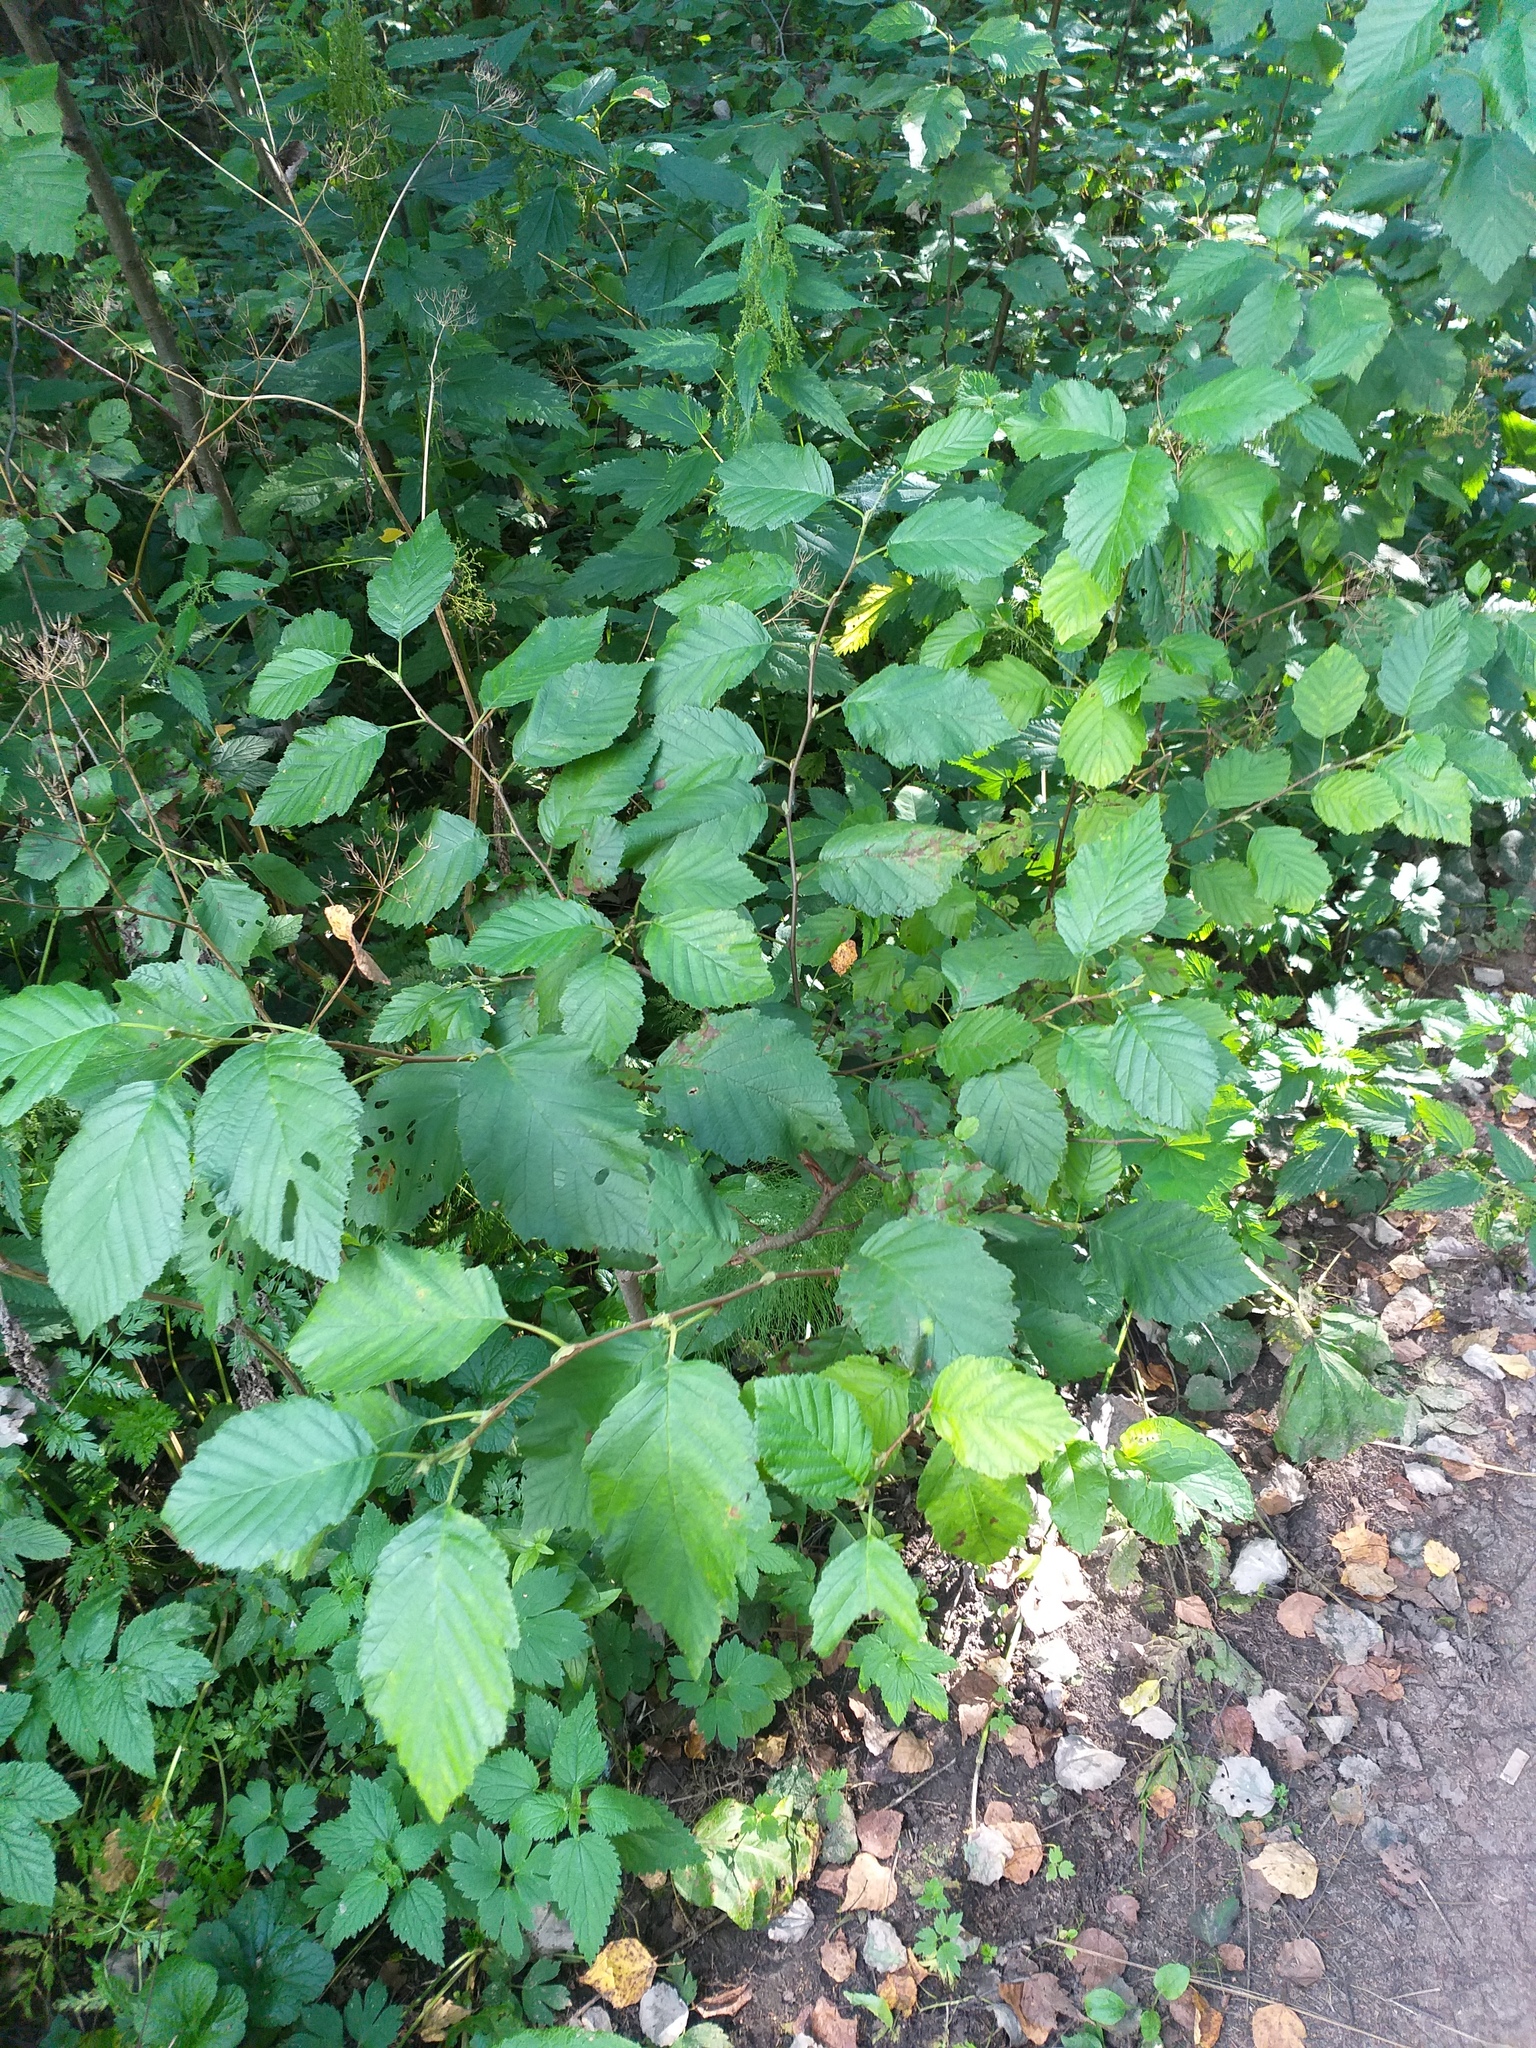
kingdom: Plantae
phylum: Tracheophyta
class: Magnoliopsida
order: Fagales
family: Betulaceae
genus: Alnus
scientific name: Alnus incana
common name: Grey alder
